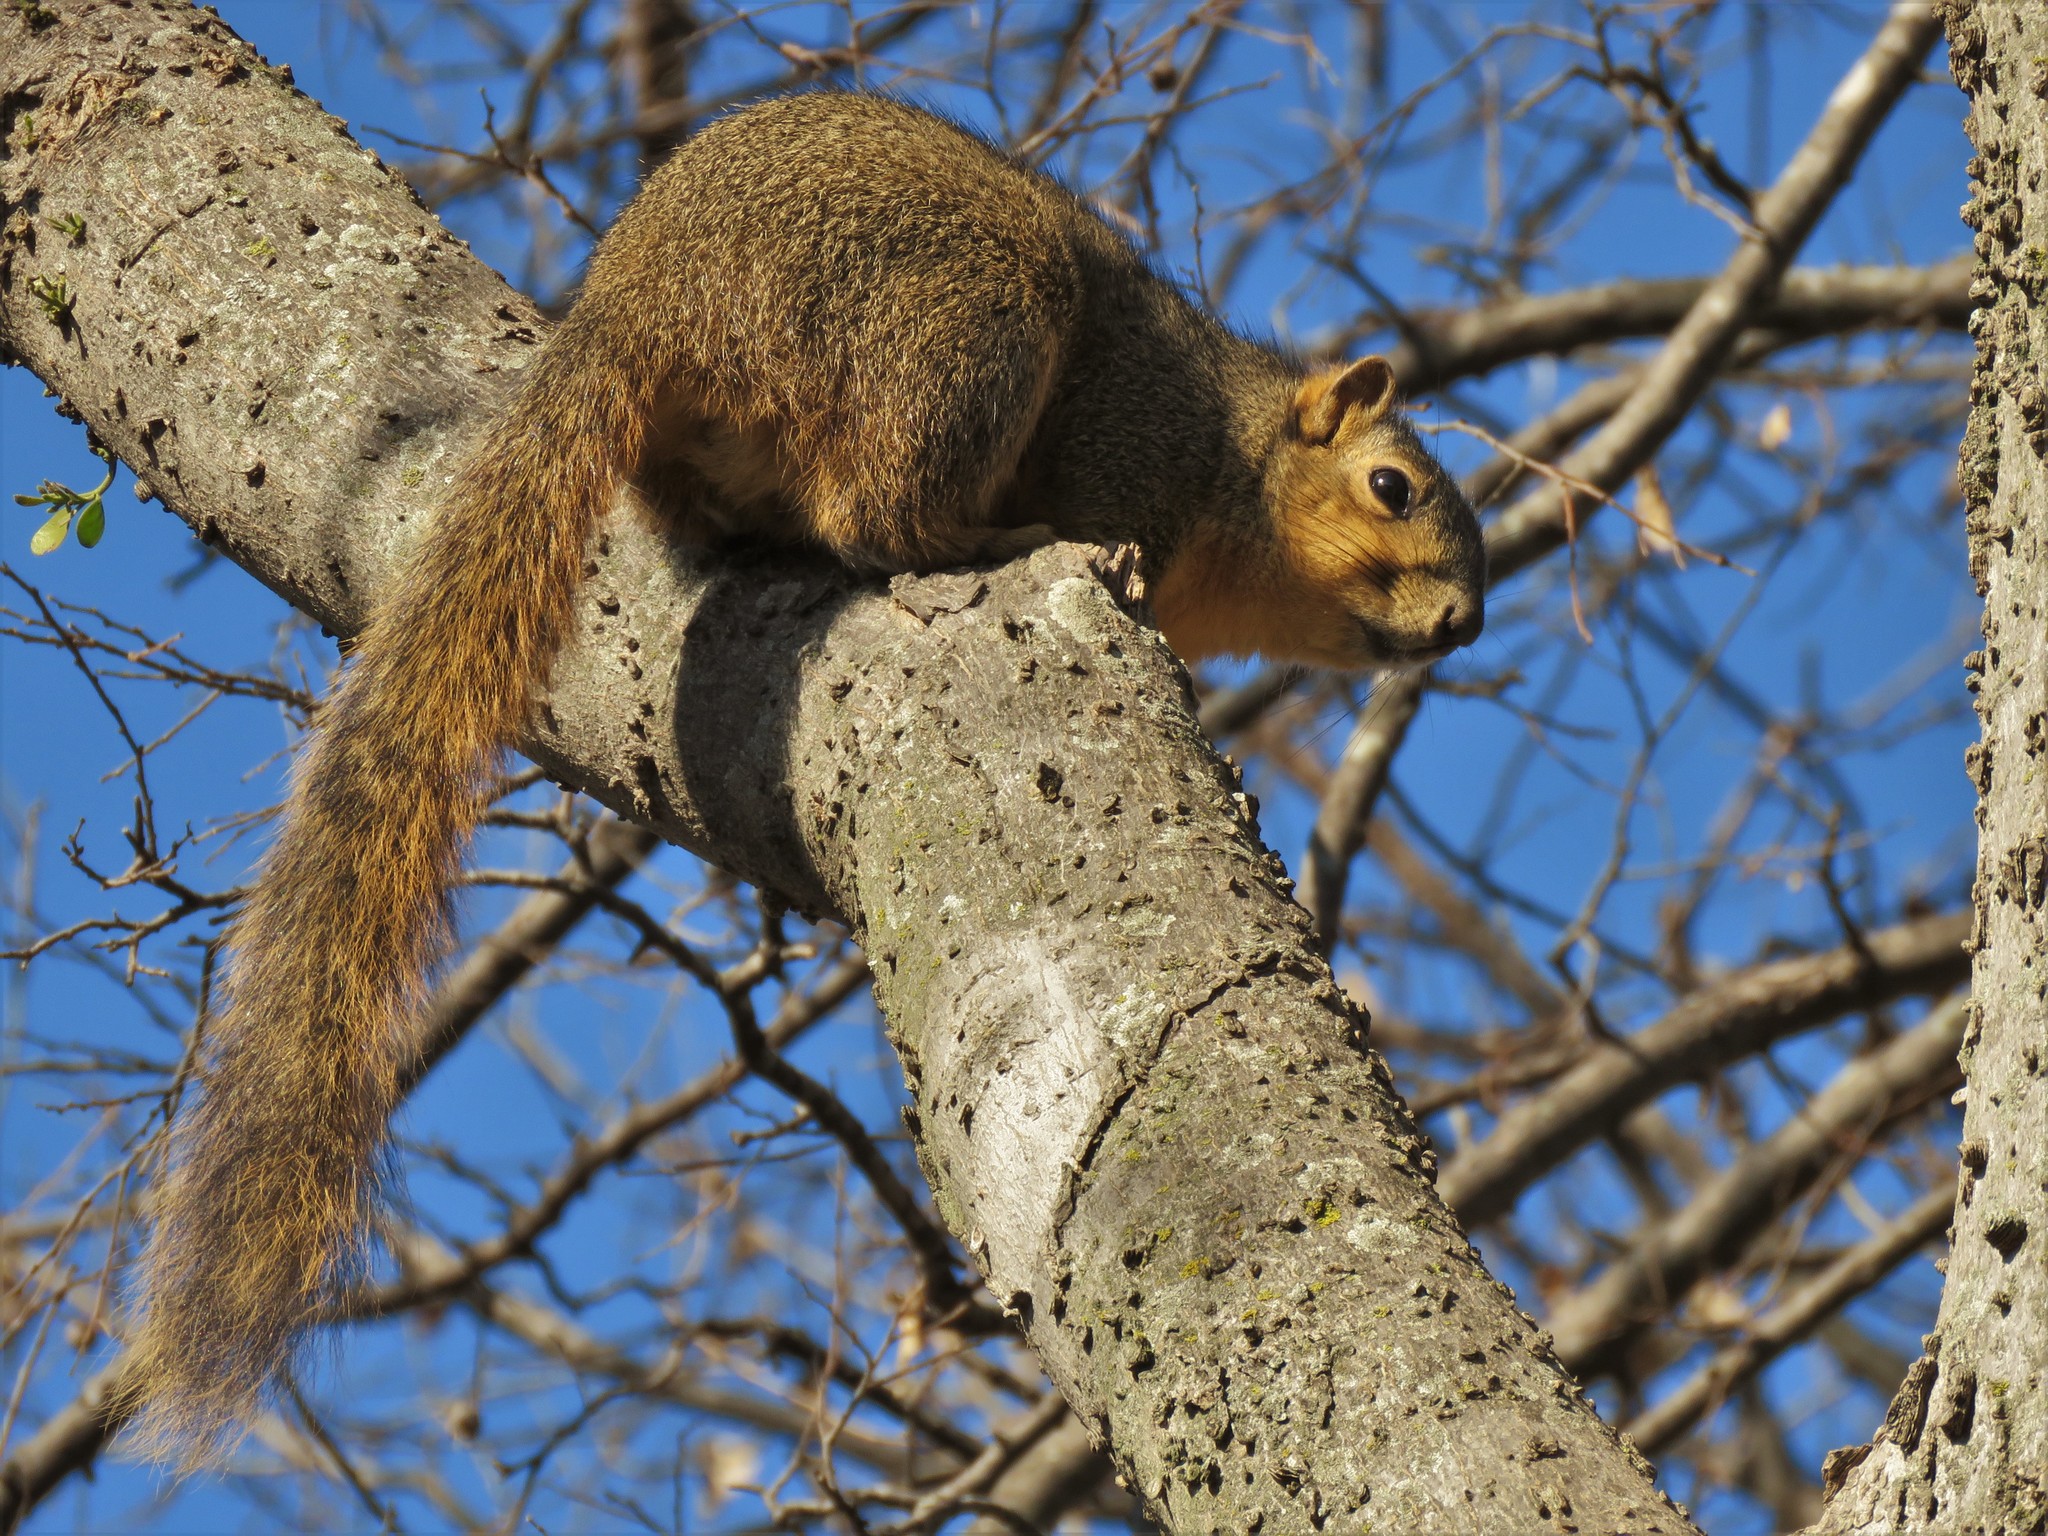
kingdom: Animalia
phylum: Chordata
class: Mammalia
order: Rodentia
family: Sciuridae
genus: Sciurus
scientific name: Sciurus niger
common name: Fox squirrel
